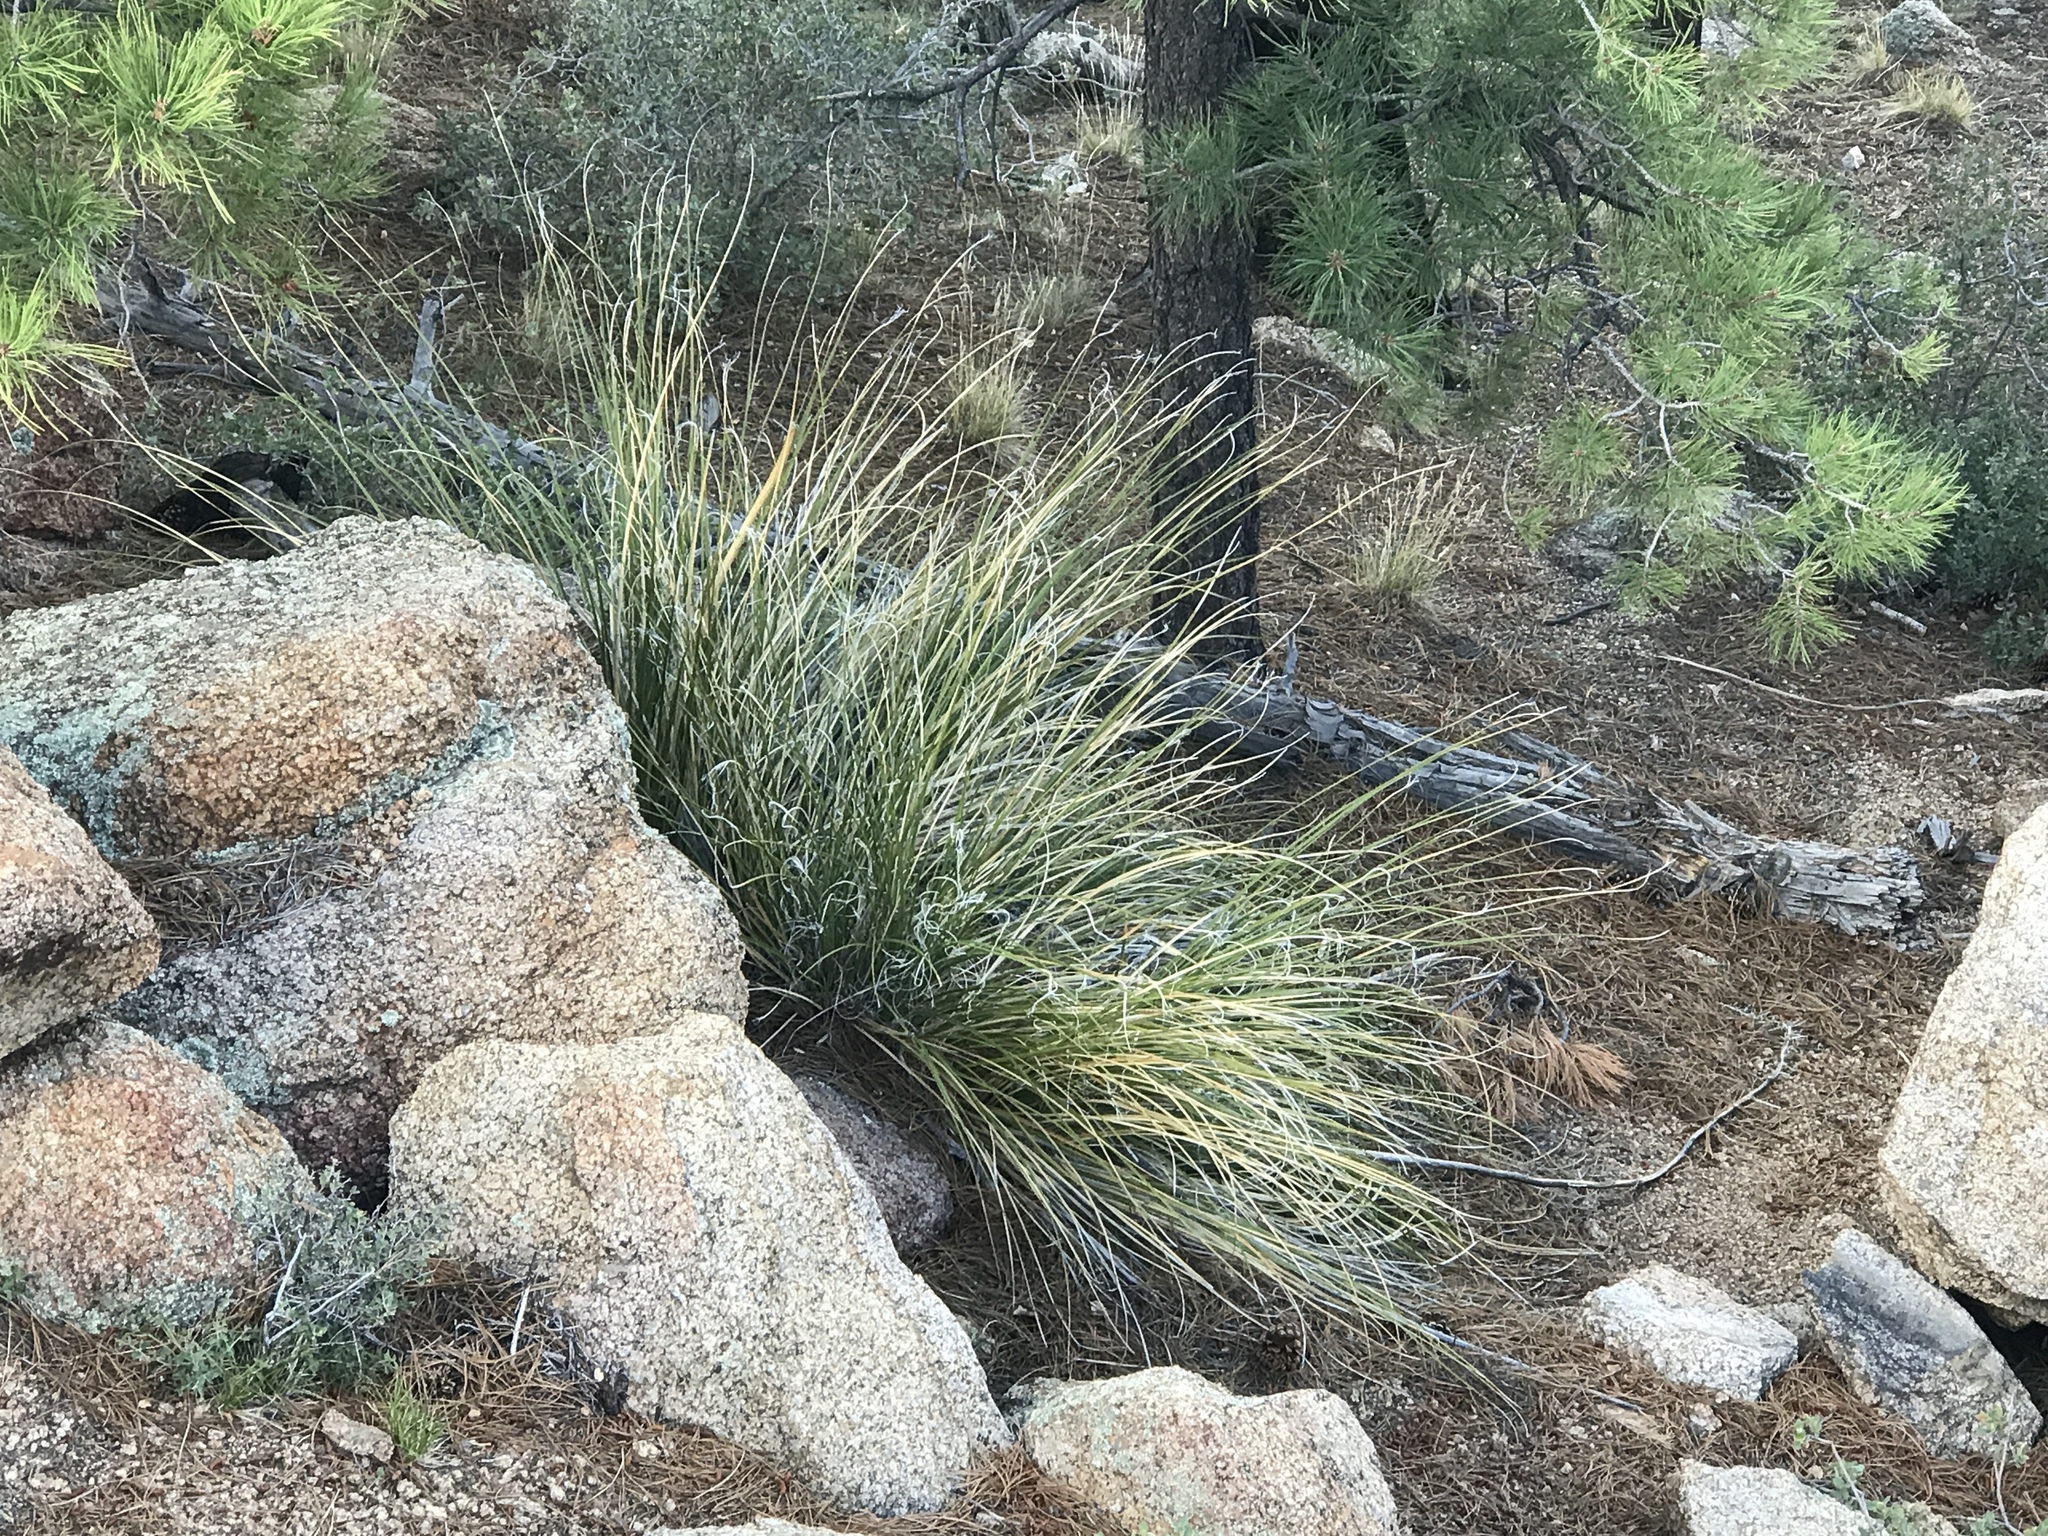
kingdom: Plantae
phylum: Tracheophyta
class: Liliopsida
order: Asparagales
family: Asparagaceae
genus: Nolina
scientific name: Nolina microcarpa
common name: Bear-grass
